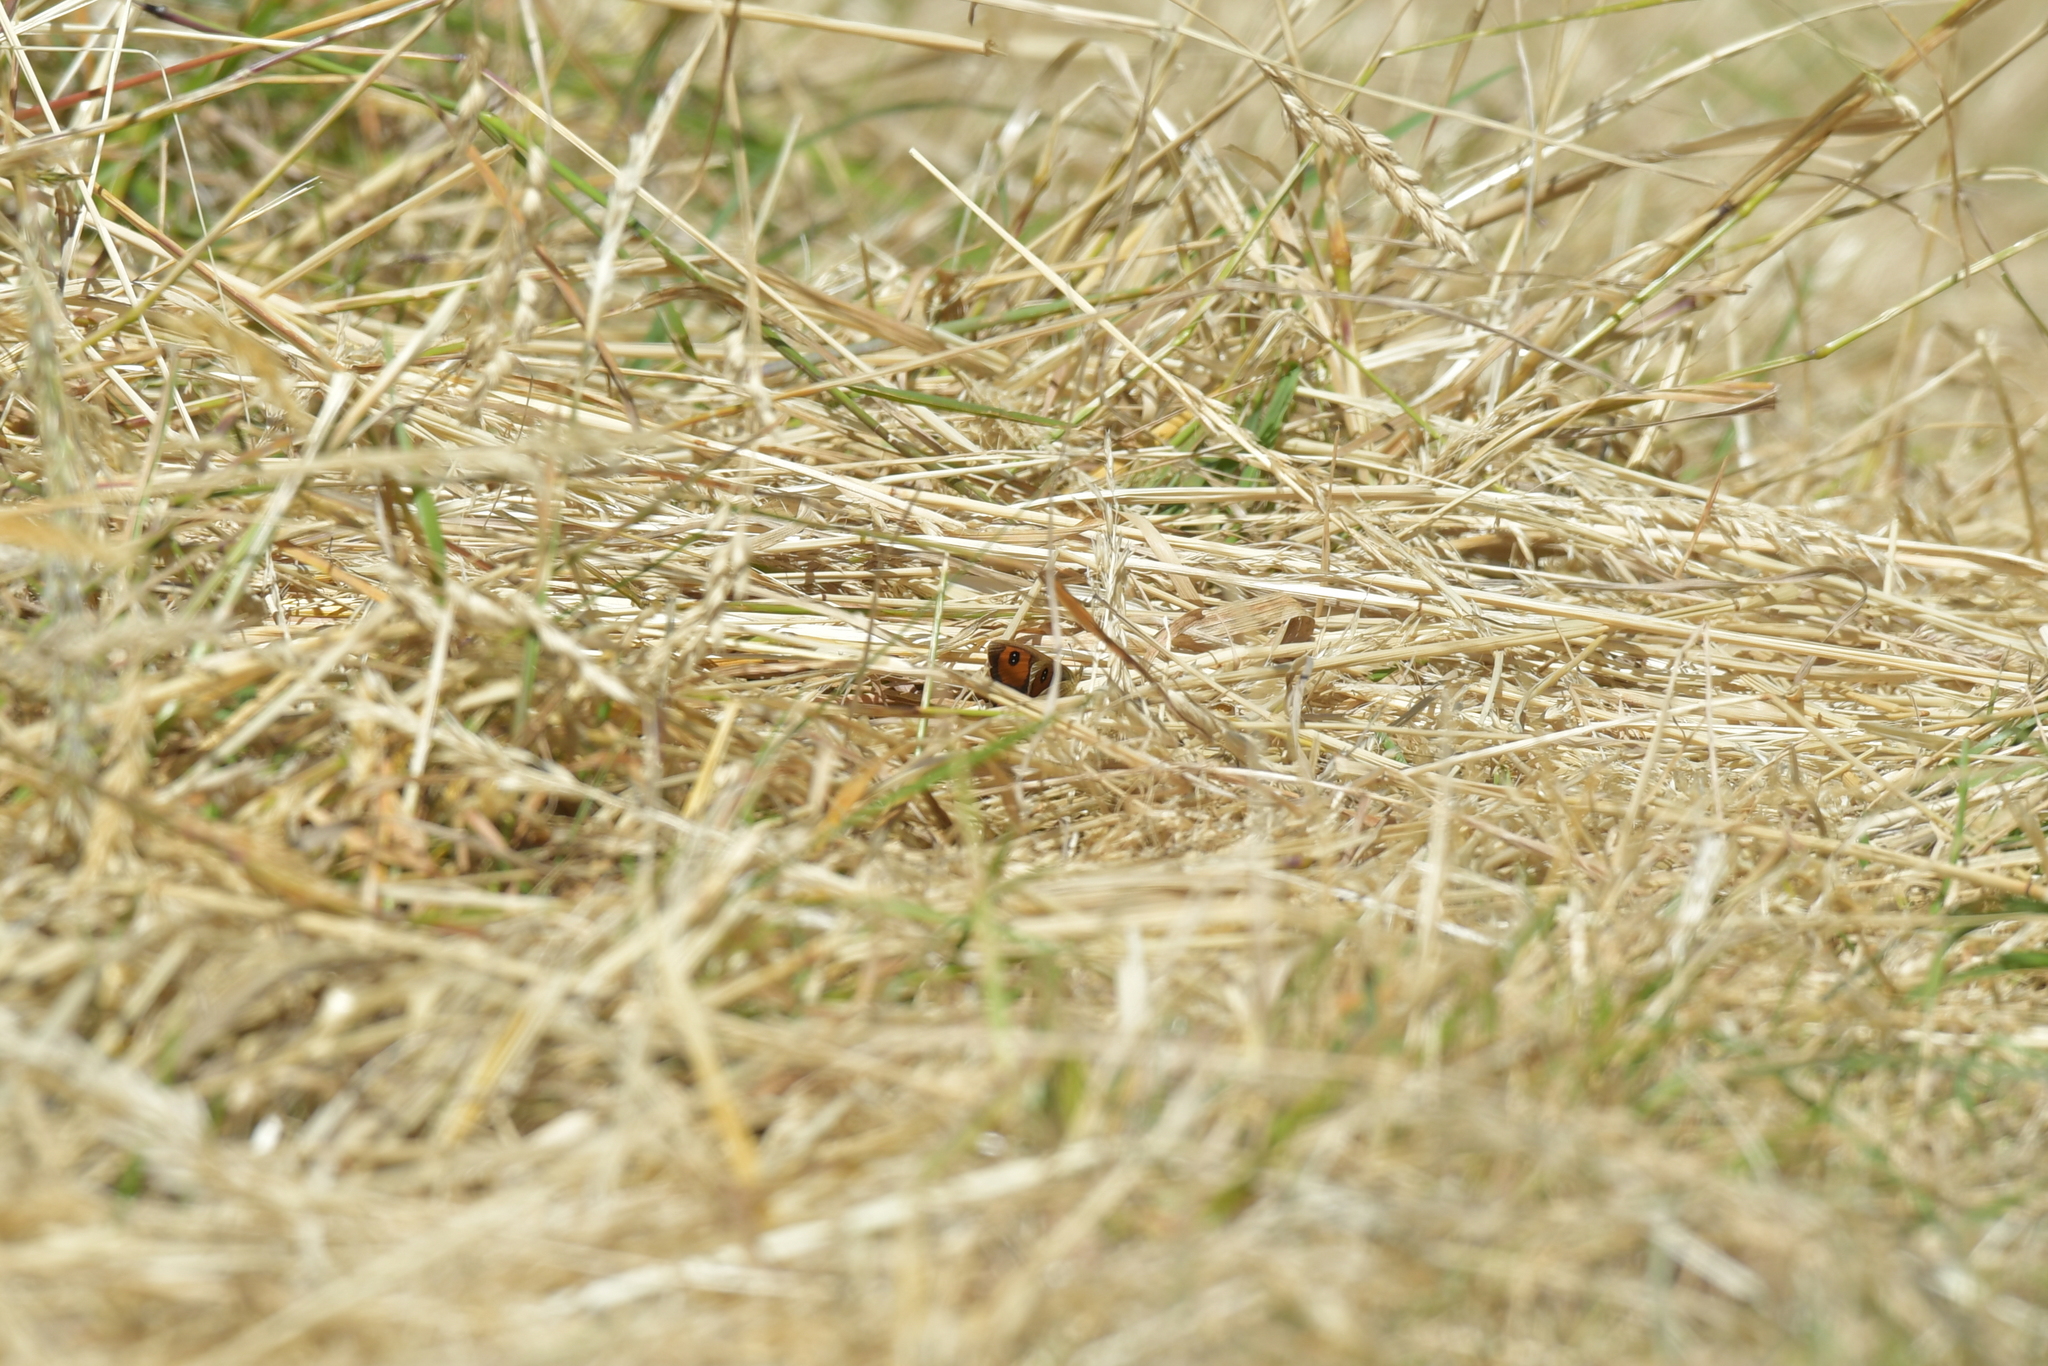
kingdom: Animalia
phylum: Arthropoda
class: Insecta
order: Lepidoptera
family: Nymphalidae
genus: Argyrophenga
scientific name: Argyrophenga antipodum
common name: Common tussock butterfly
